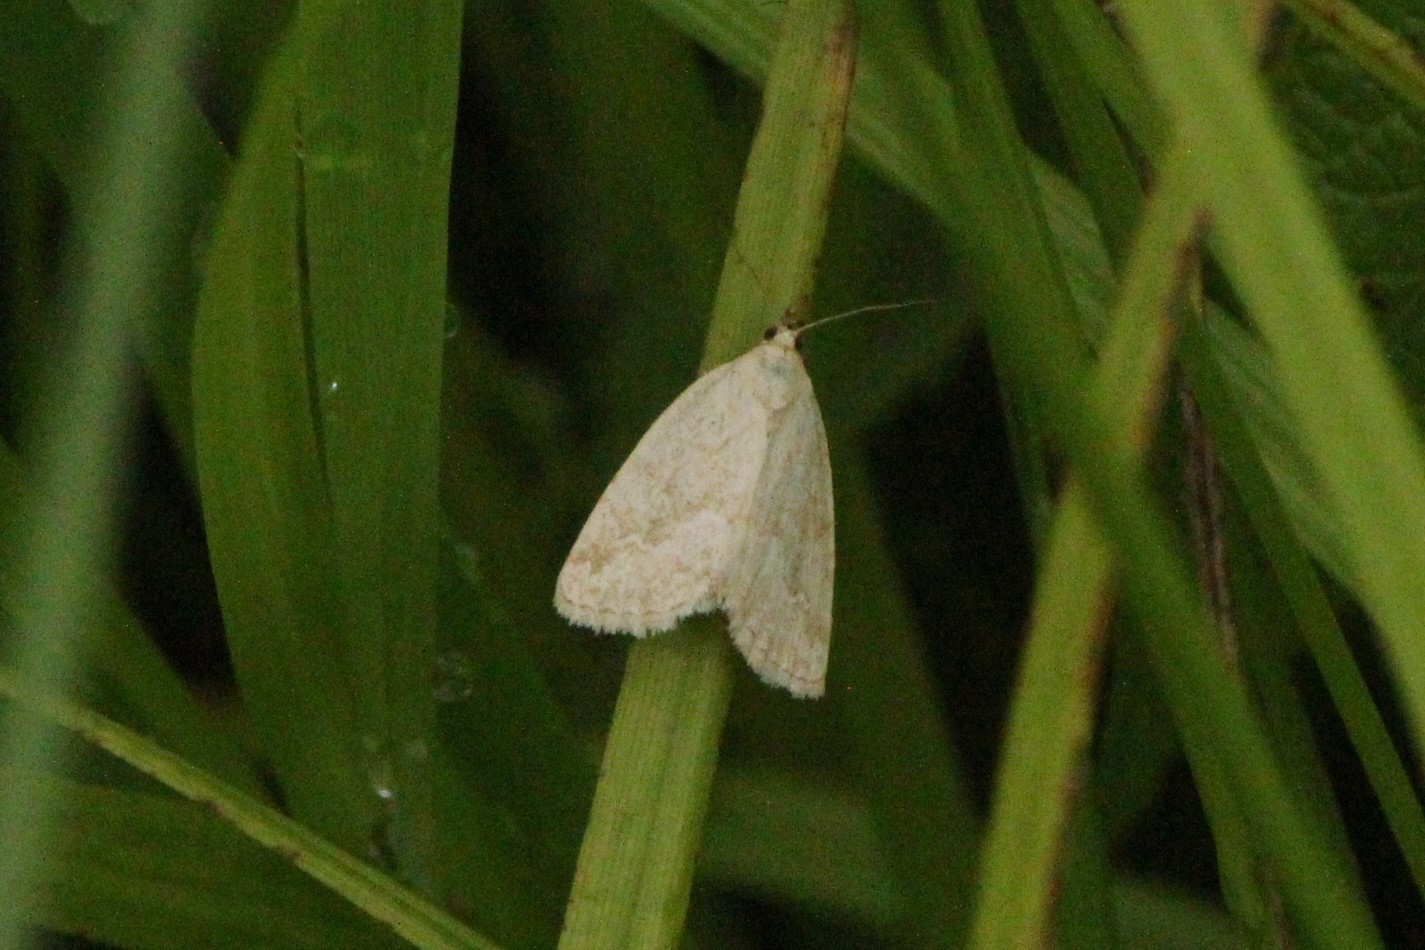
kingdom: Animalia
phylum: Arthropoda
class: Insecta
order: Lepidoptera
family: Noctuidae
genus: Protodeltote
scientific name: Protodeltote albidula
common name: Pale glyph
